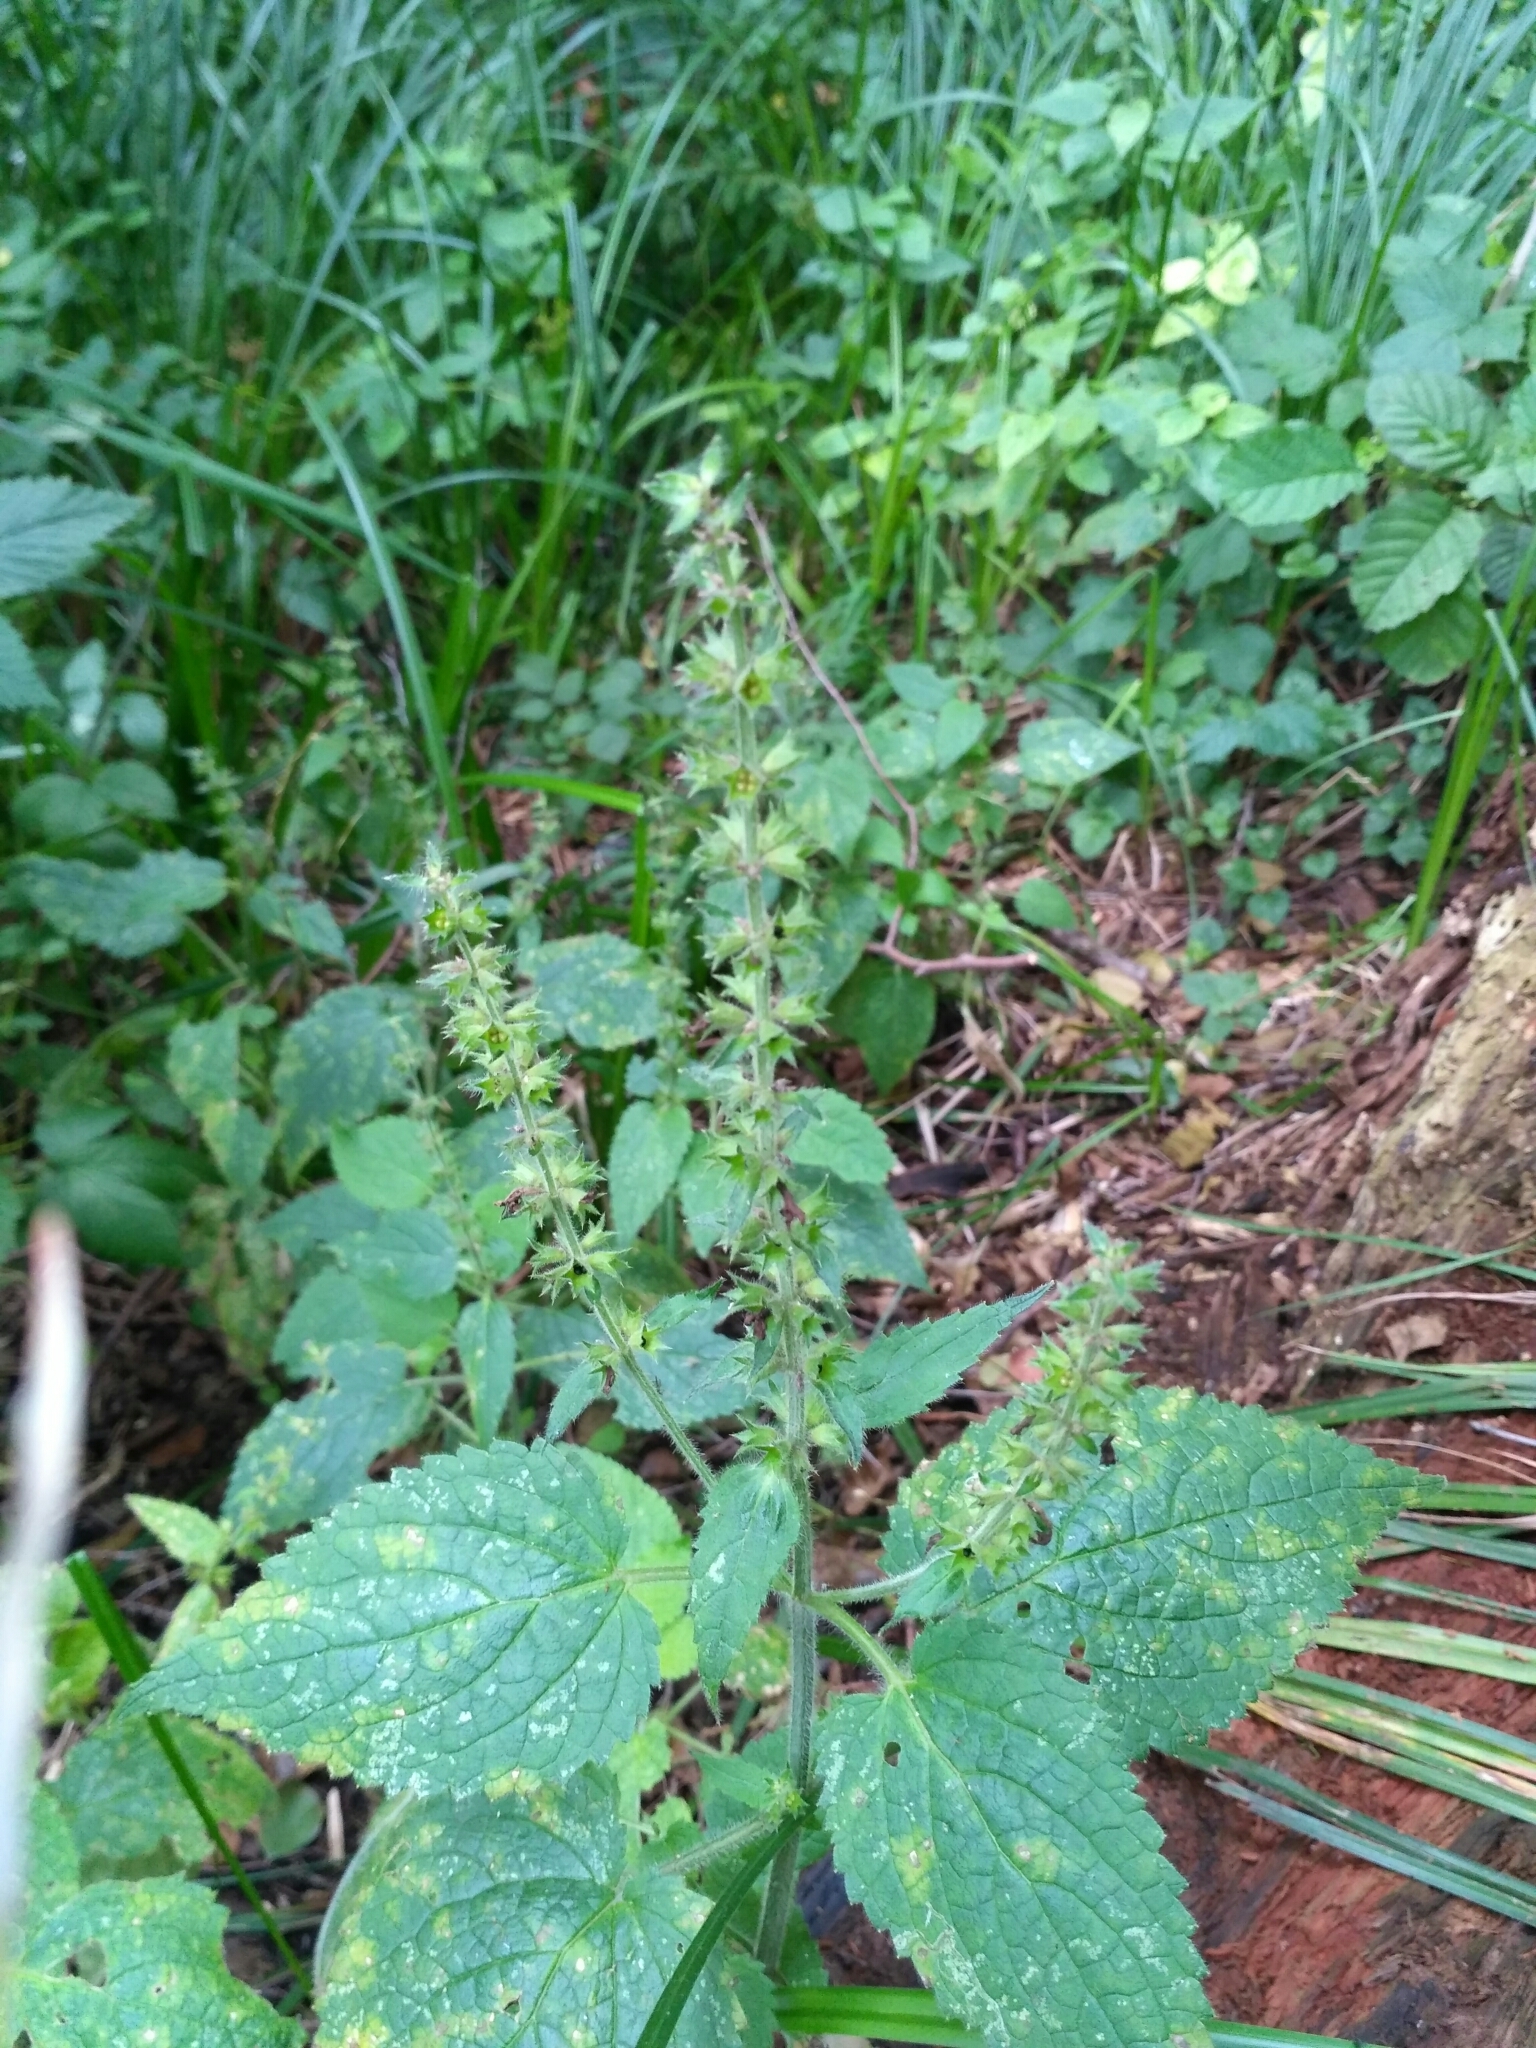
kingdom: Plantae
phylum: Tracheophyta
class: Magnoliopsida
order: Lamiales
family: Lamiaceae
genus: Stachys
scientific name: Stachys sylvatica
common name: Hedge woundwort
